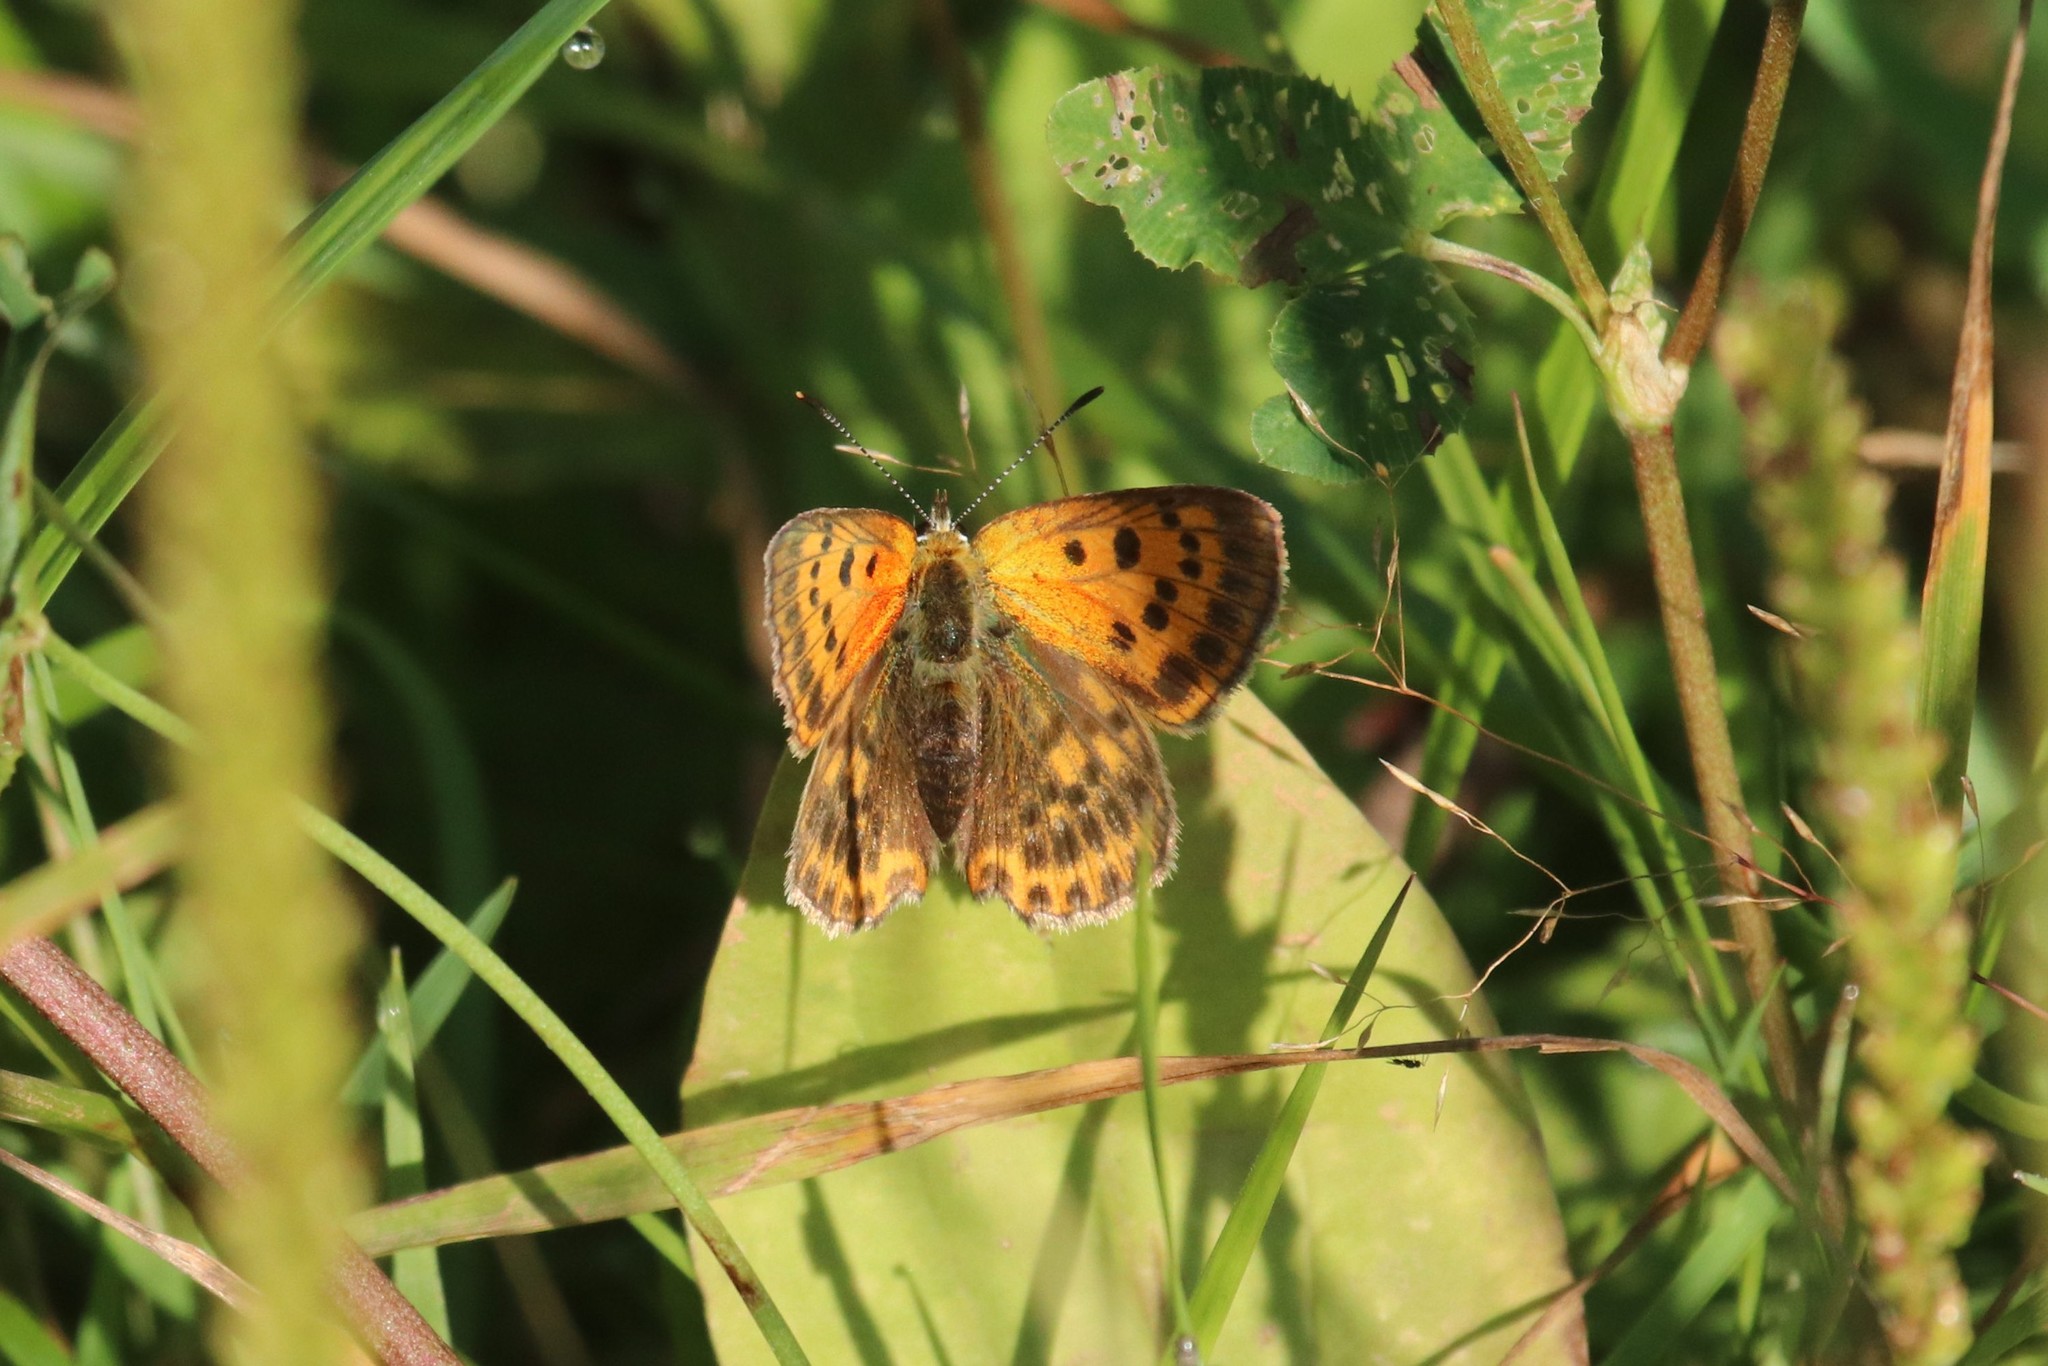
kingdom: Animalia
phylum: Arthropoda
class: Insecta
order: Lepidoptera
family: Lycaenidae
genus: Lycaena
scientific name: Lycaena virgaureae
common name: Scarce copper
